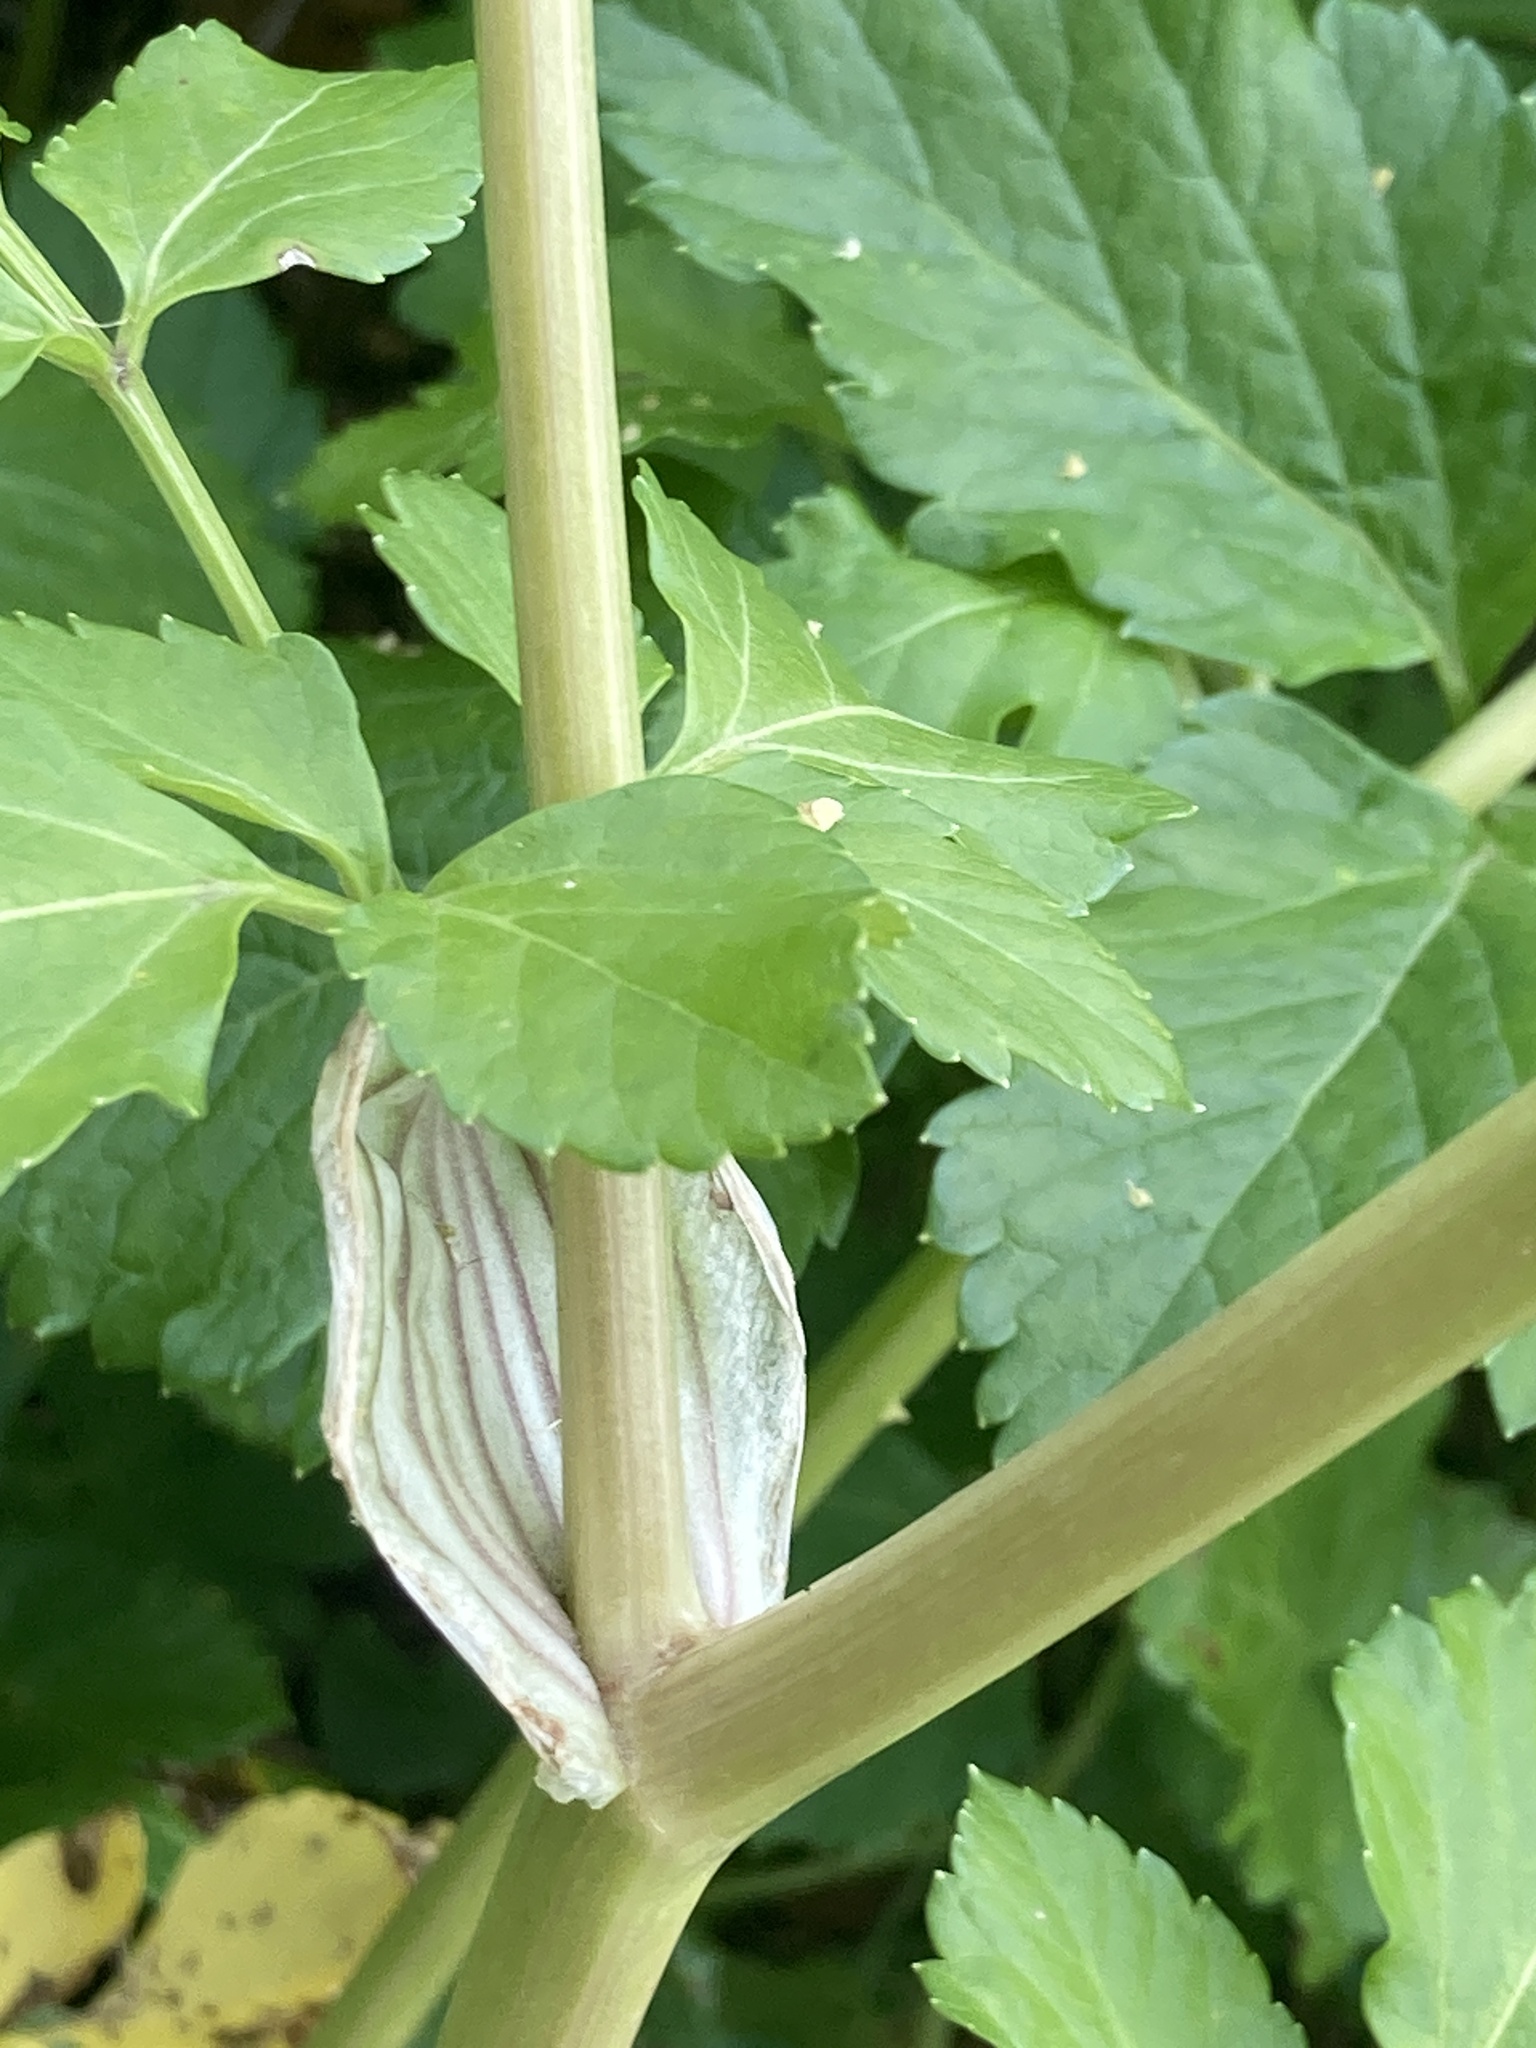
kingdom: Plantae
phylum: Tracheophyta
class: Magnoliopsida
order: Apiales
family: Apiaceae
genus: Smyrnium
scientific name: Smyrnium olusatrum
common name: Alexanders
